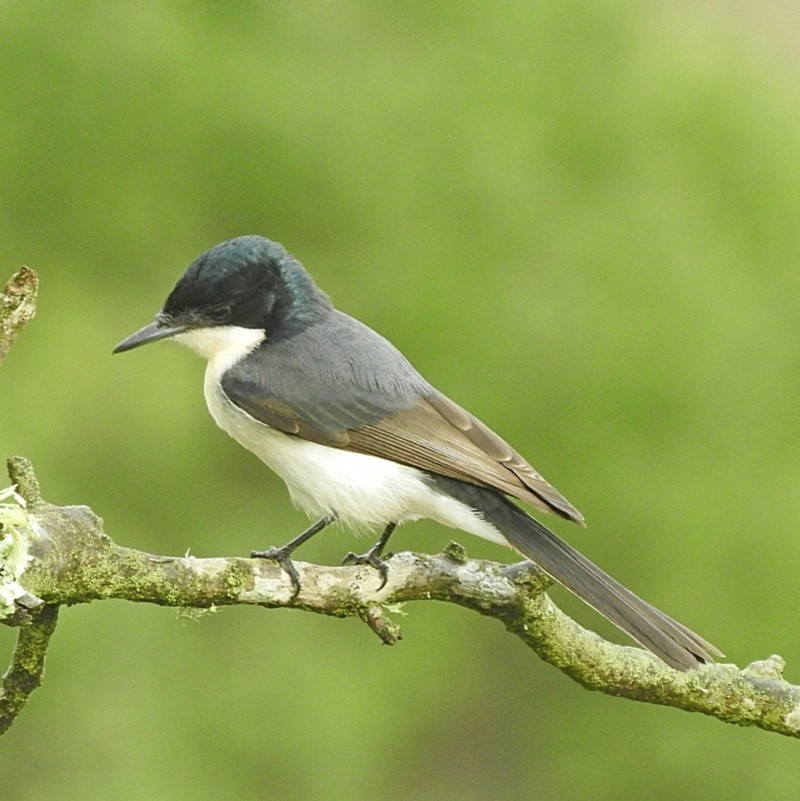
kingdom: Animalia
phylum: Chordata
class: Aves
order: Passeriformes
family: Monarchidae
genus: Myiagra
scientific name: Myiagra inquieta
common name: Restless flycatcher
